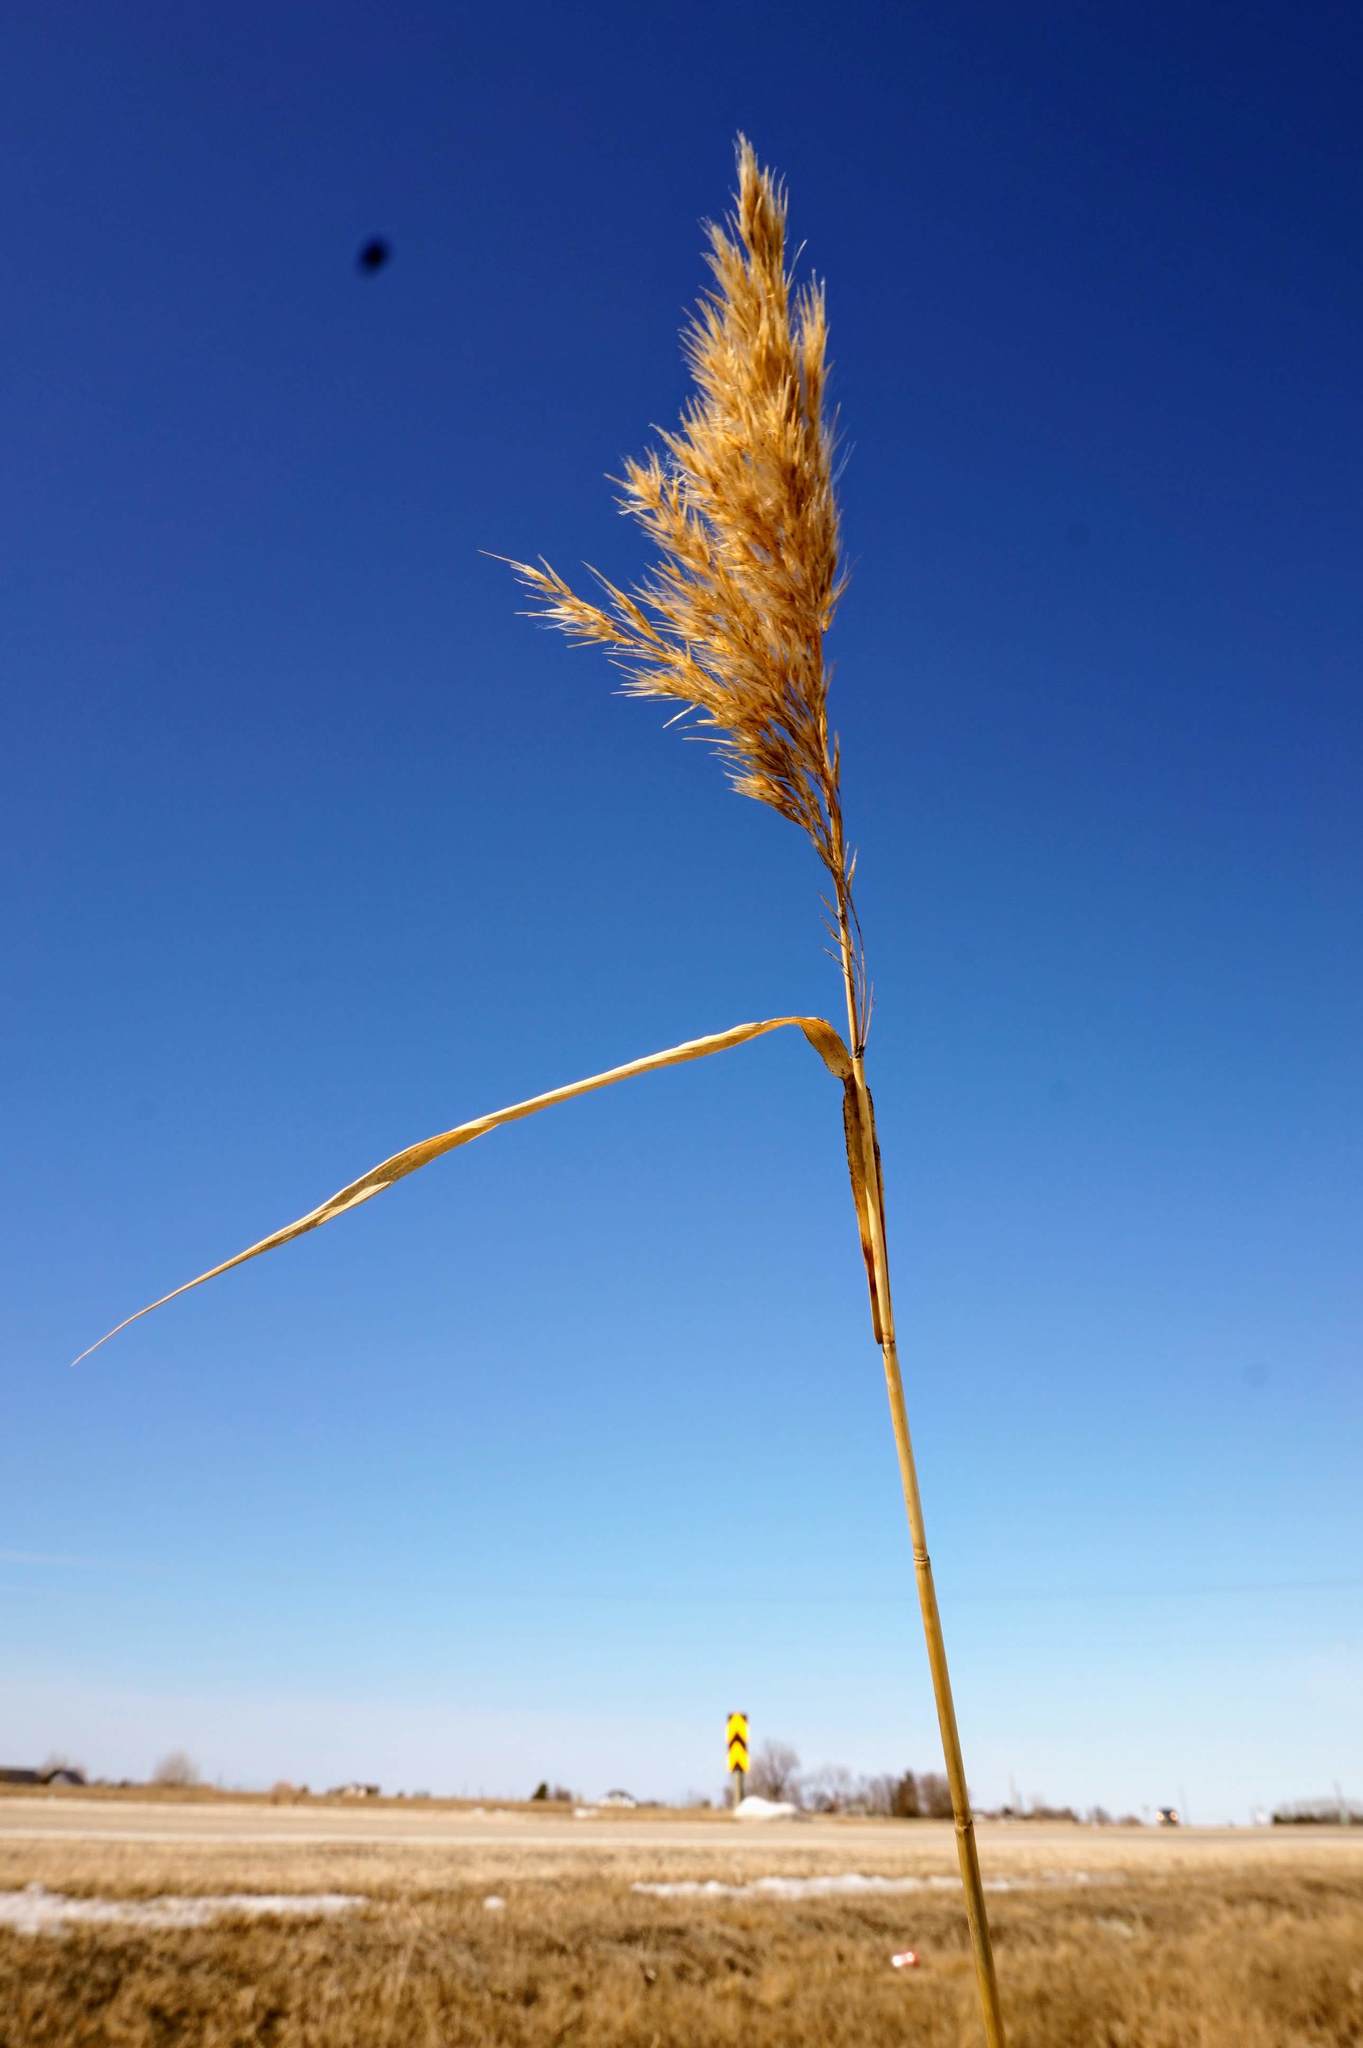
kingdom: Plantae
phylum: Tracheophyta
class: Liliopsida
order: Poales
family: Poaceae
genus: Phragmites
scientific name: Phragmites australis
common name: Common reed
